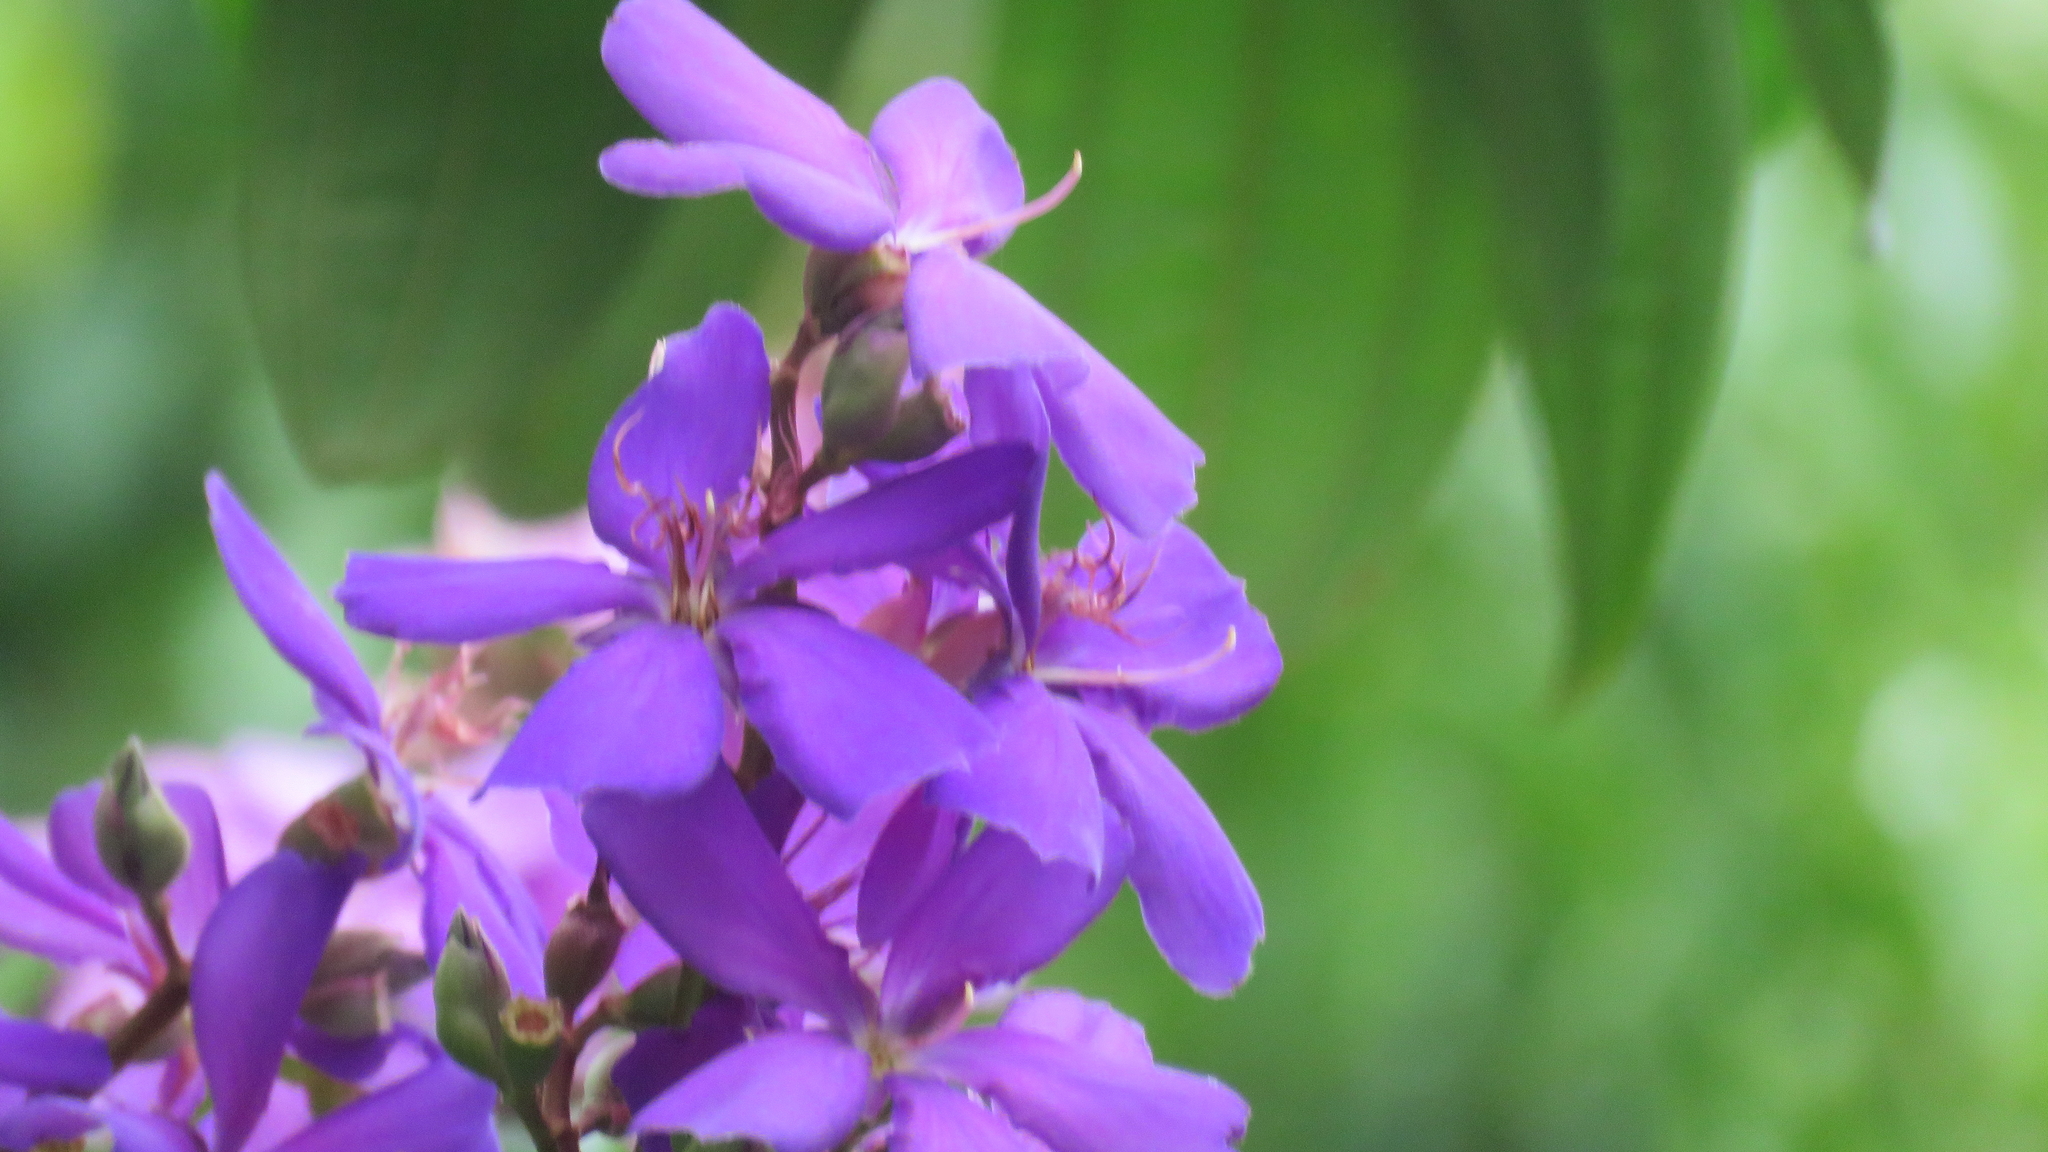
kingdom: Plantae
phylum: Tracheophyta
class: Magnoliopsida
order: Myrtales
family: Melastomataceae
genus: Pleroma
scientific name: Pleroma granulosum
